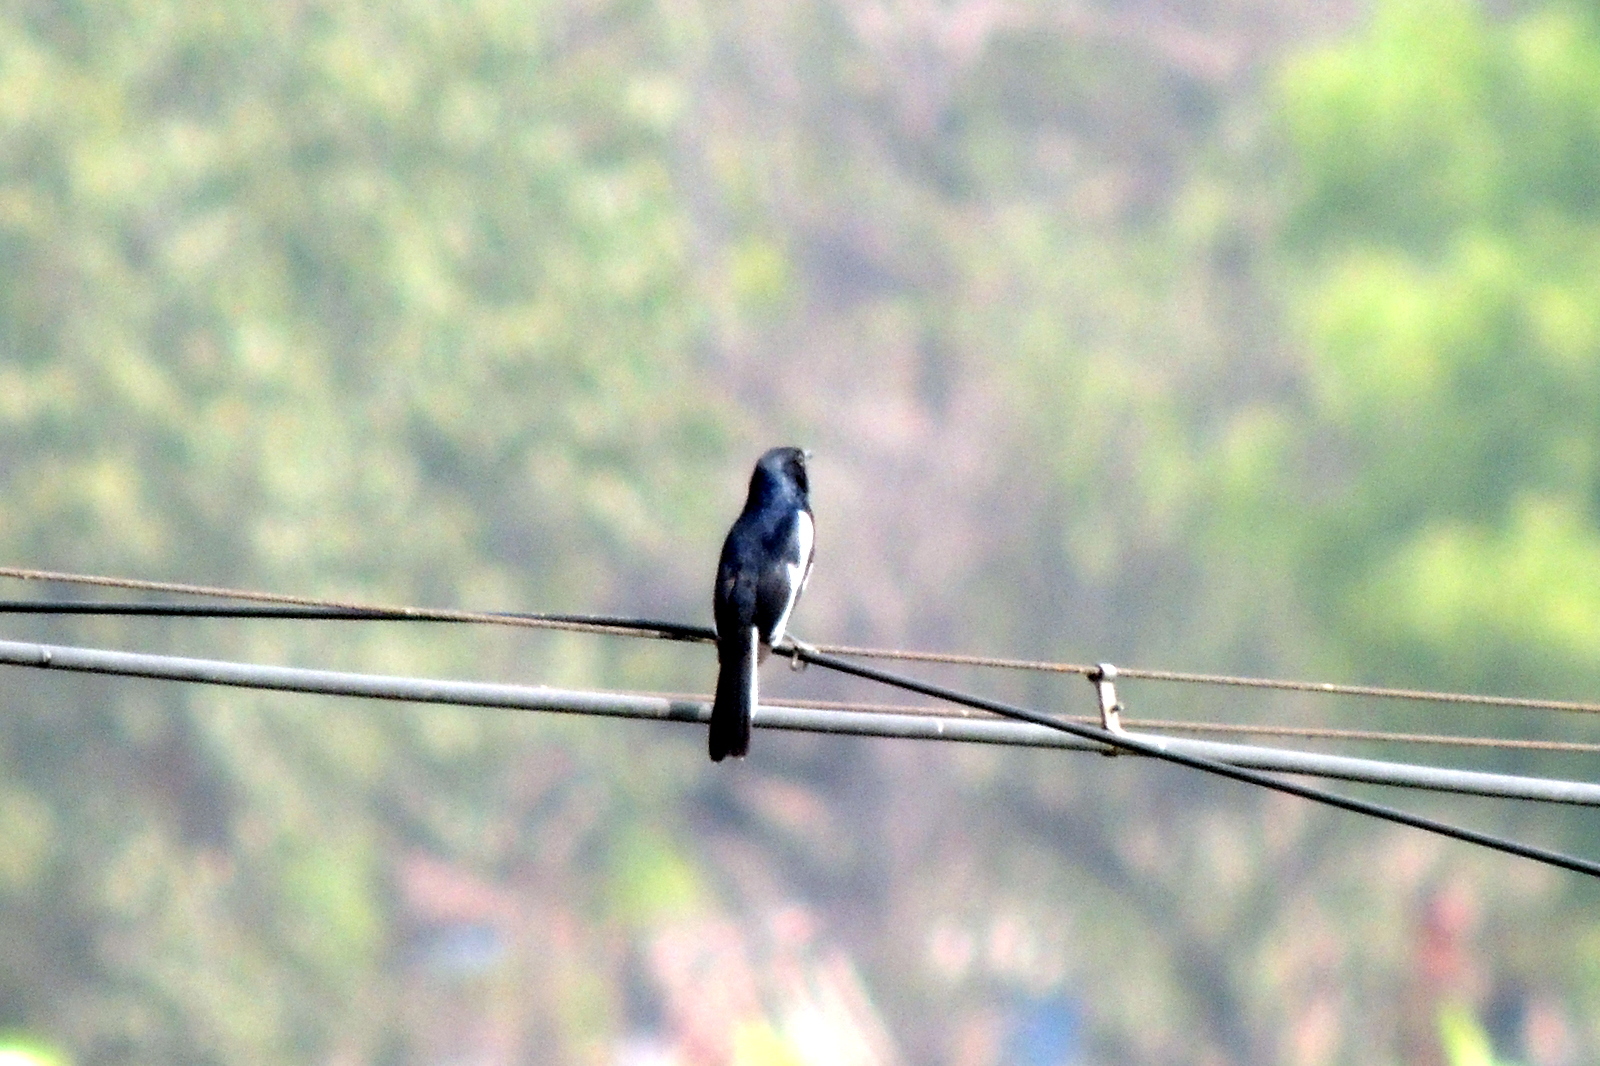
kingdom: Animalia
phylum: Chordata
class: Aves
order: Passeriformes
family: Muscicapidae
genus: Copsychus
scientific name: Copsychus saularis
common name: Oriental magpie-robin
